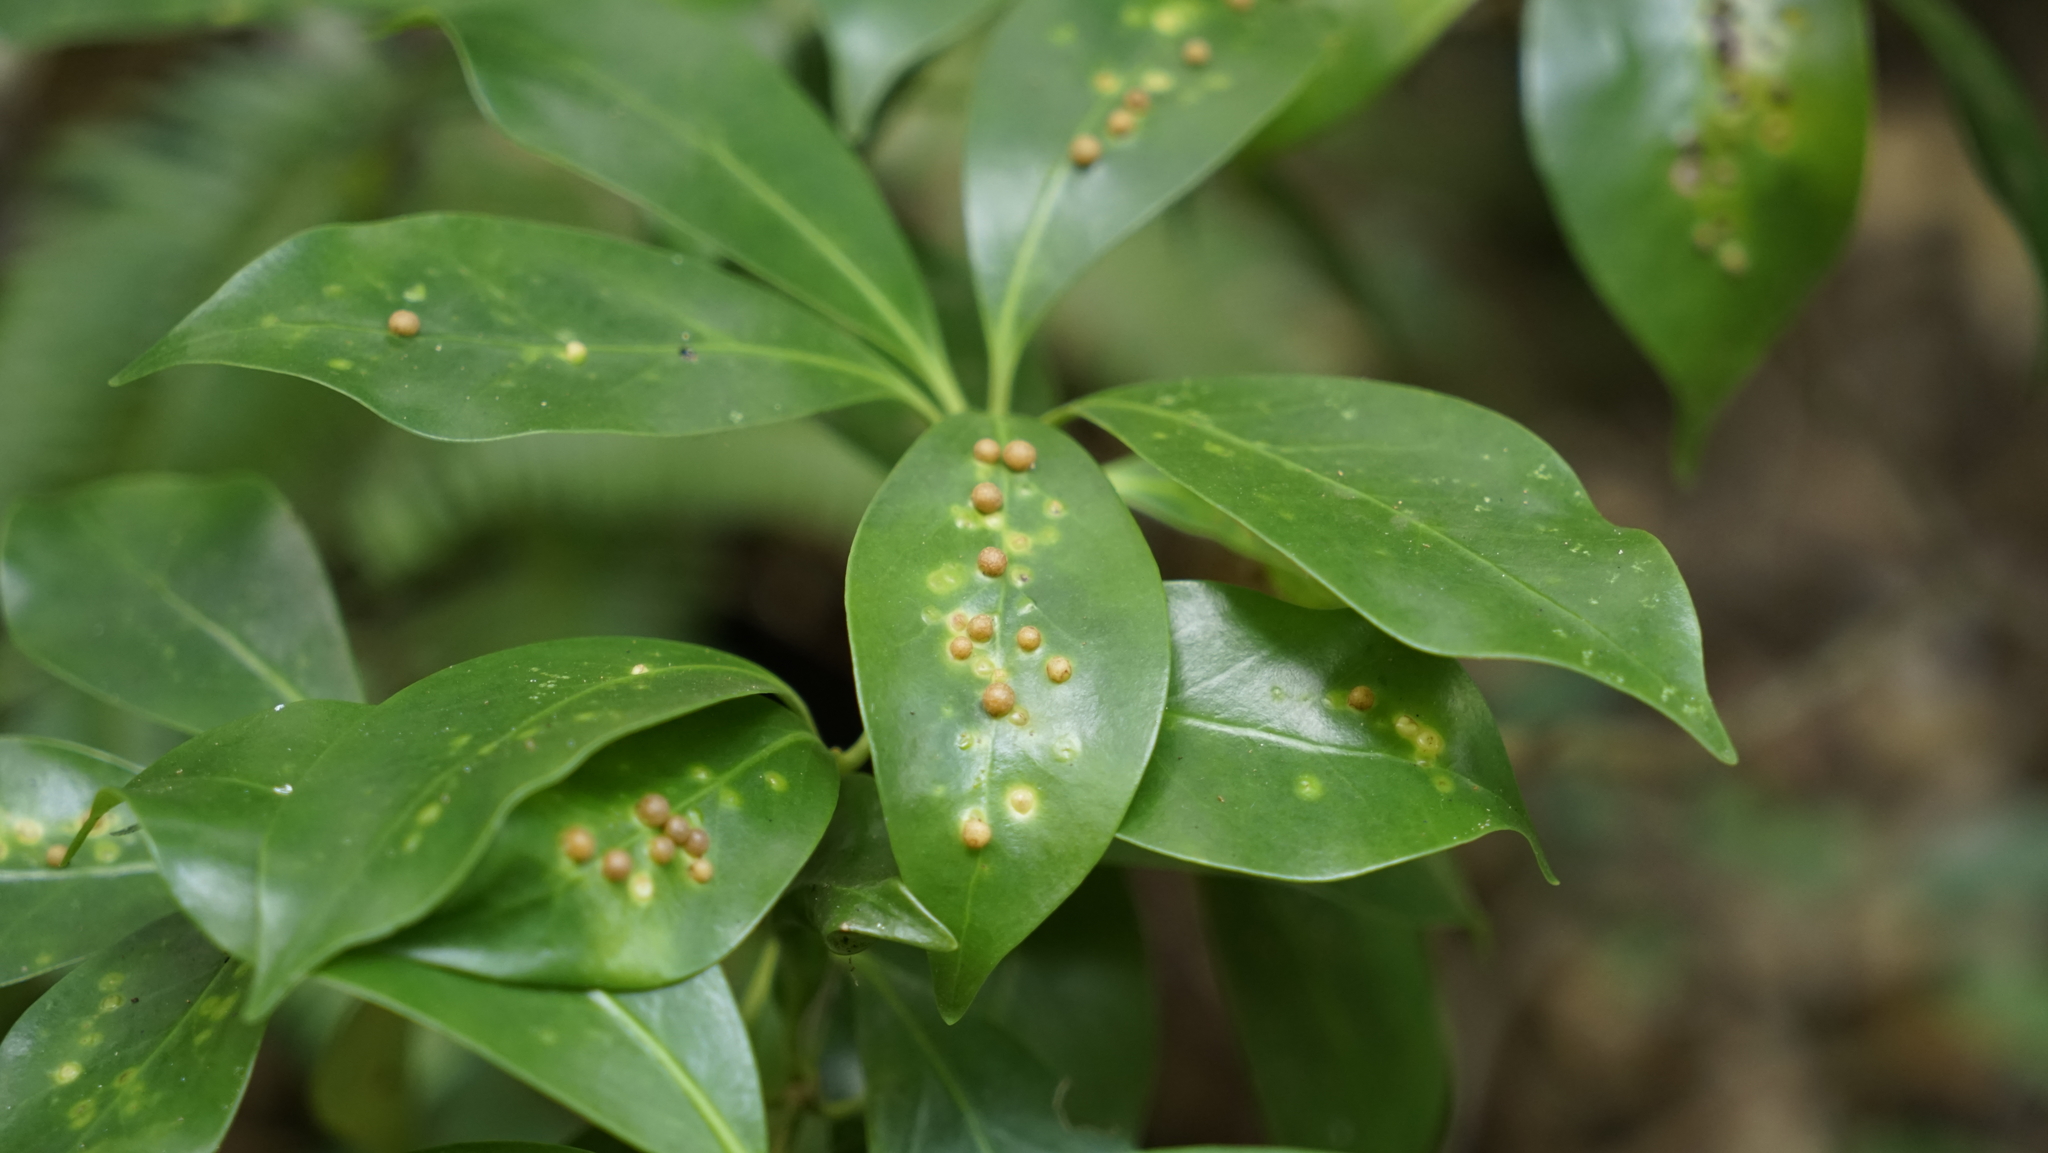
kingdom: Animalia
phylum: Arthropoda
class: Insecta
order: Diptera
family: Cecidomyiidae
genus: Pseudasphondylia
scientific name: Pseudasphondylia yukawai
